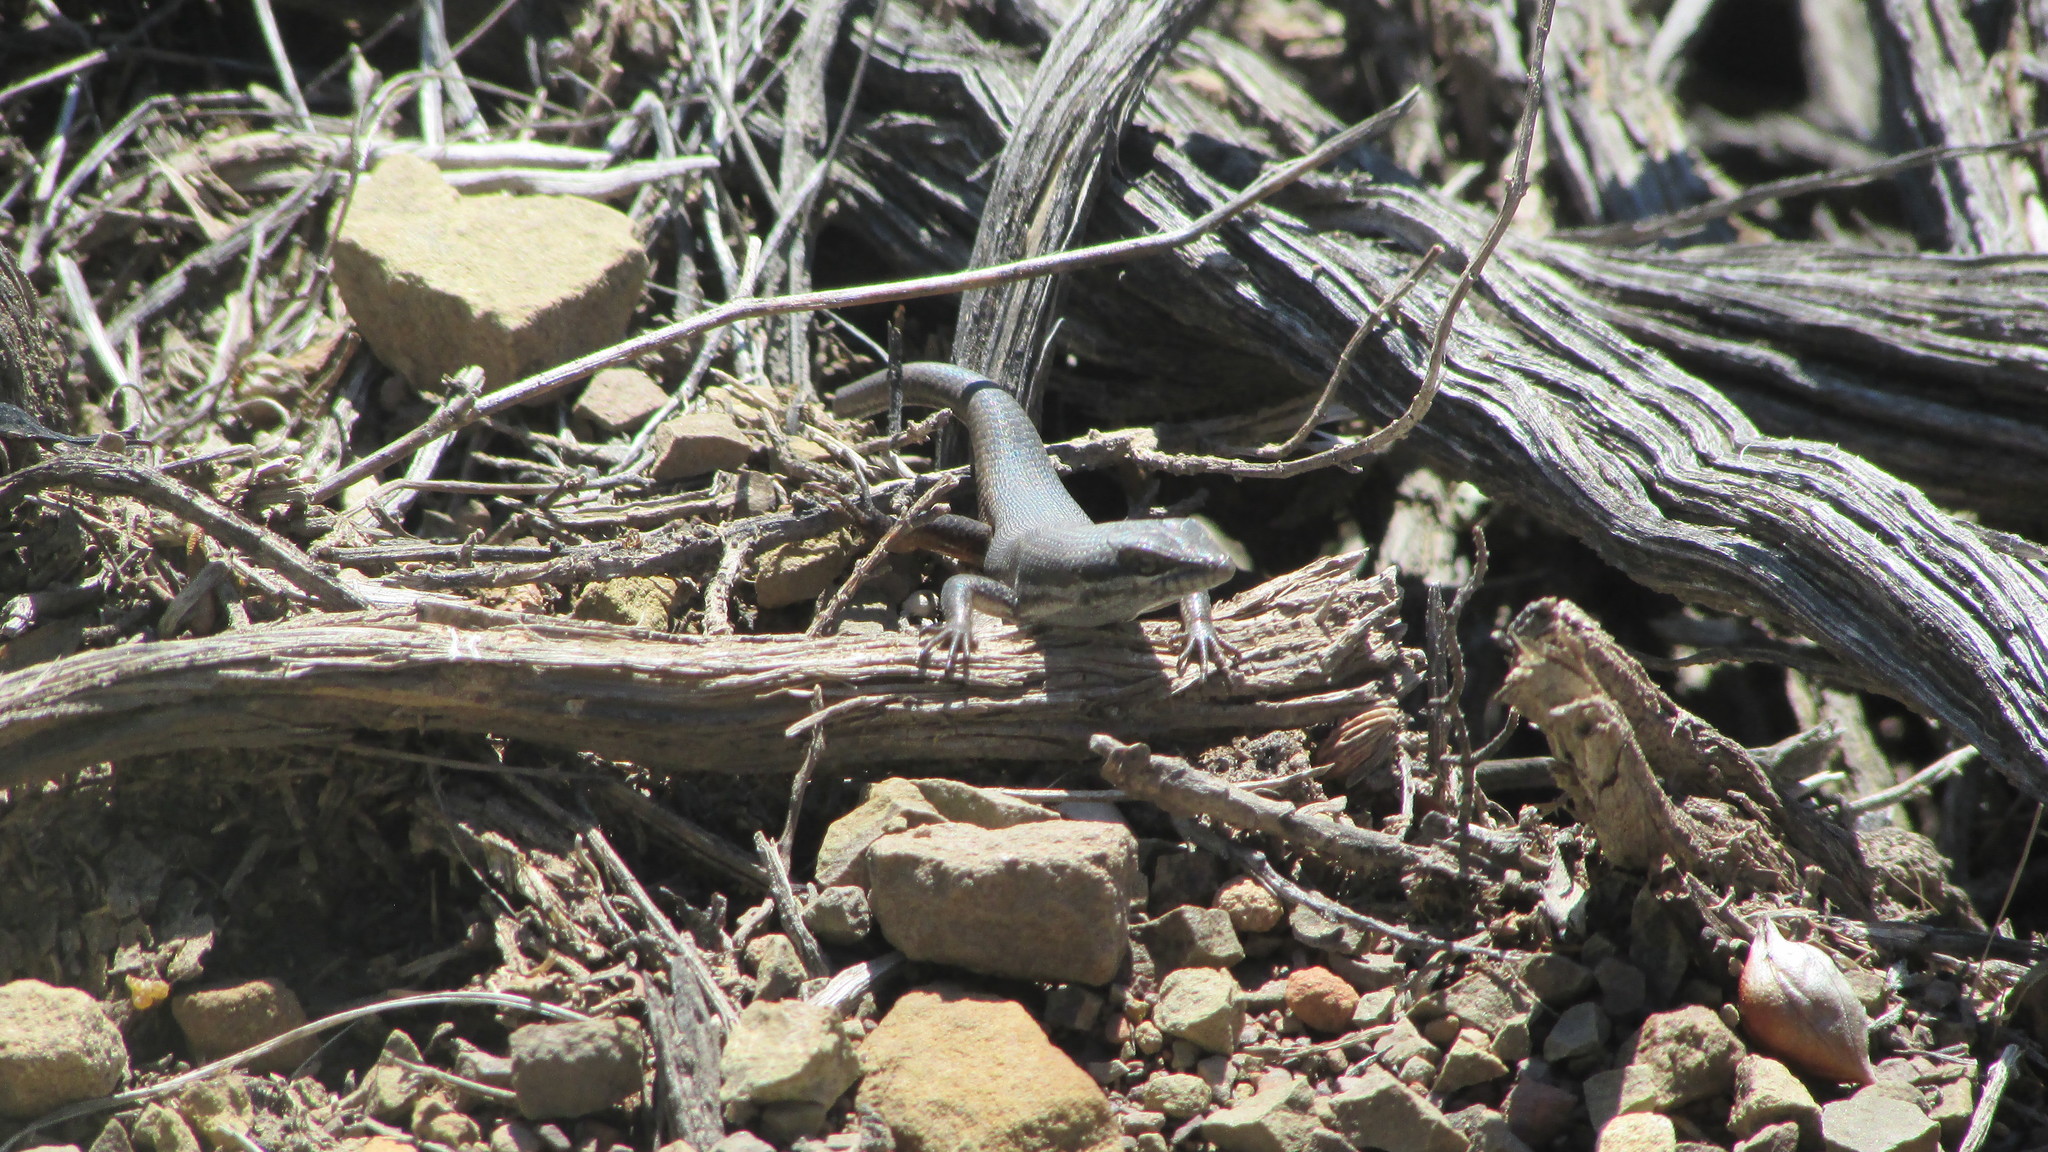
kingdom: Animalia
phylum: Chordata
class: Squamata
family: Scincidae
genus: Trachylepis
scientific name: Trachylepis variegata
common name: Variegated skink
